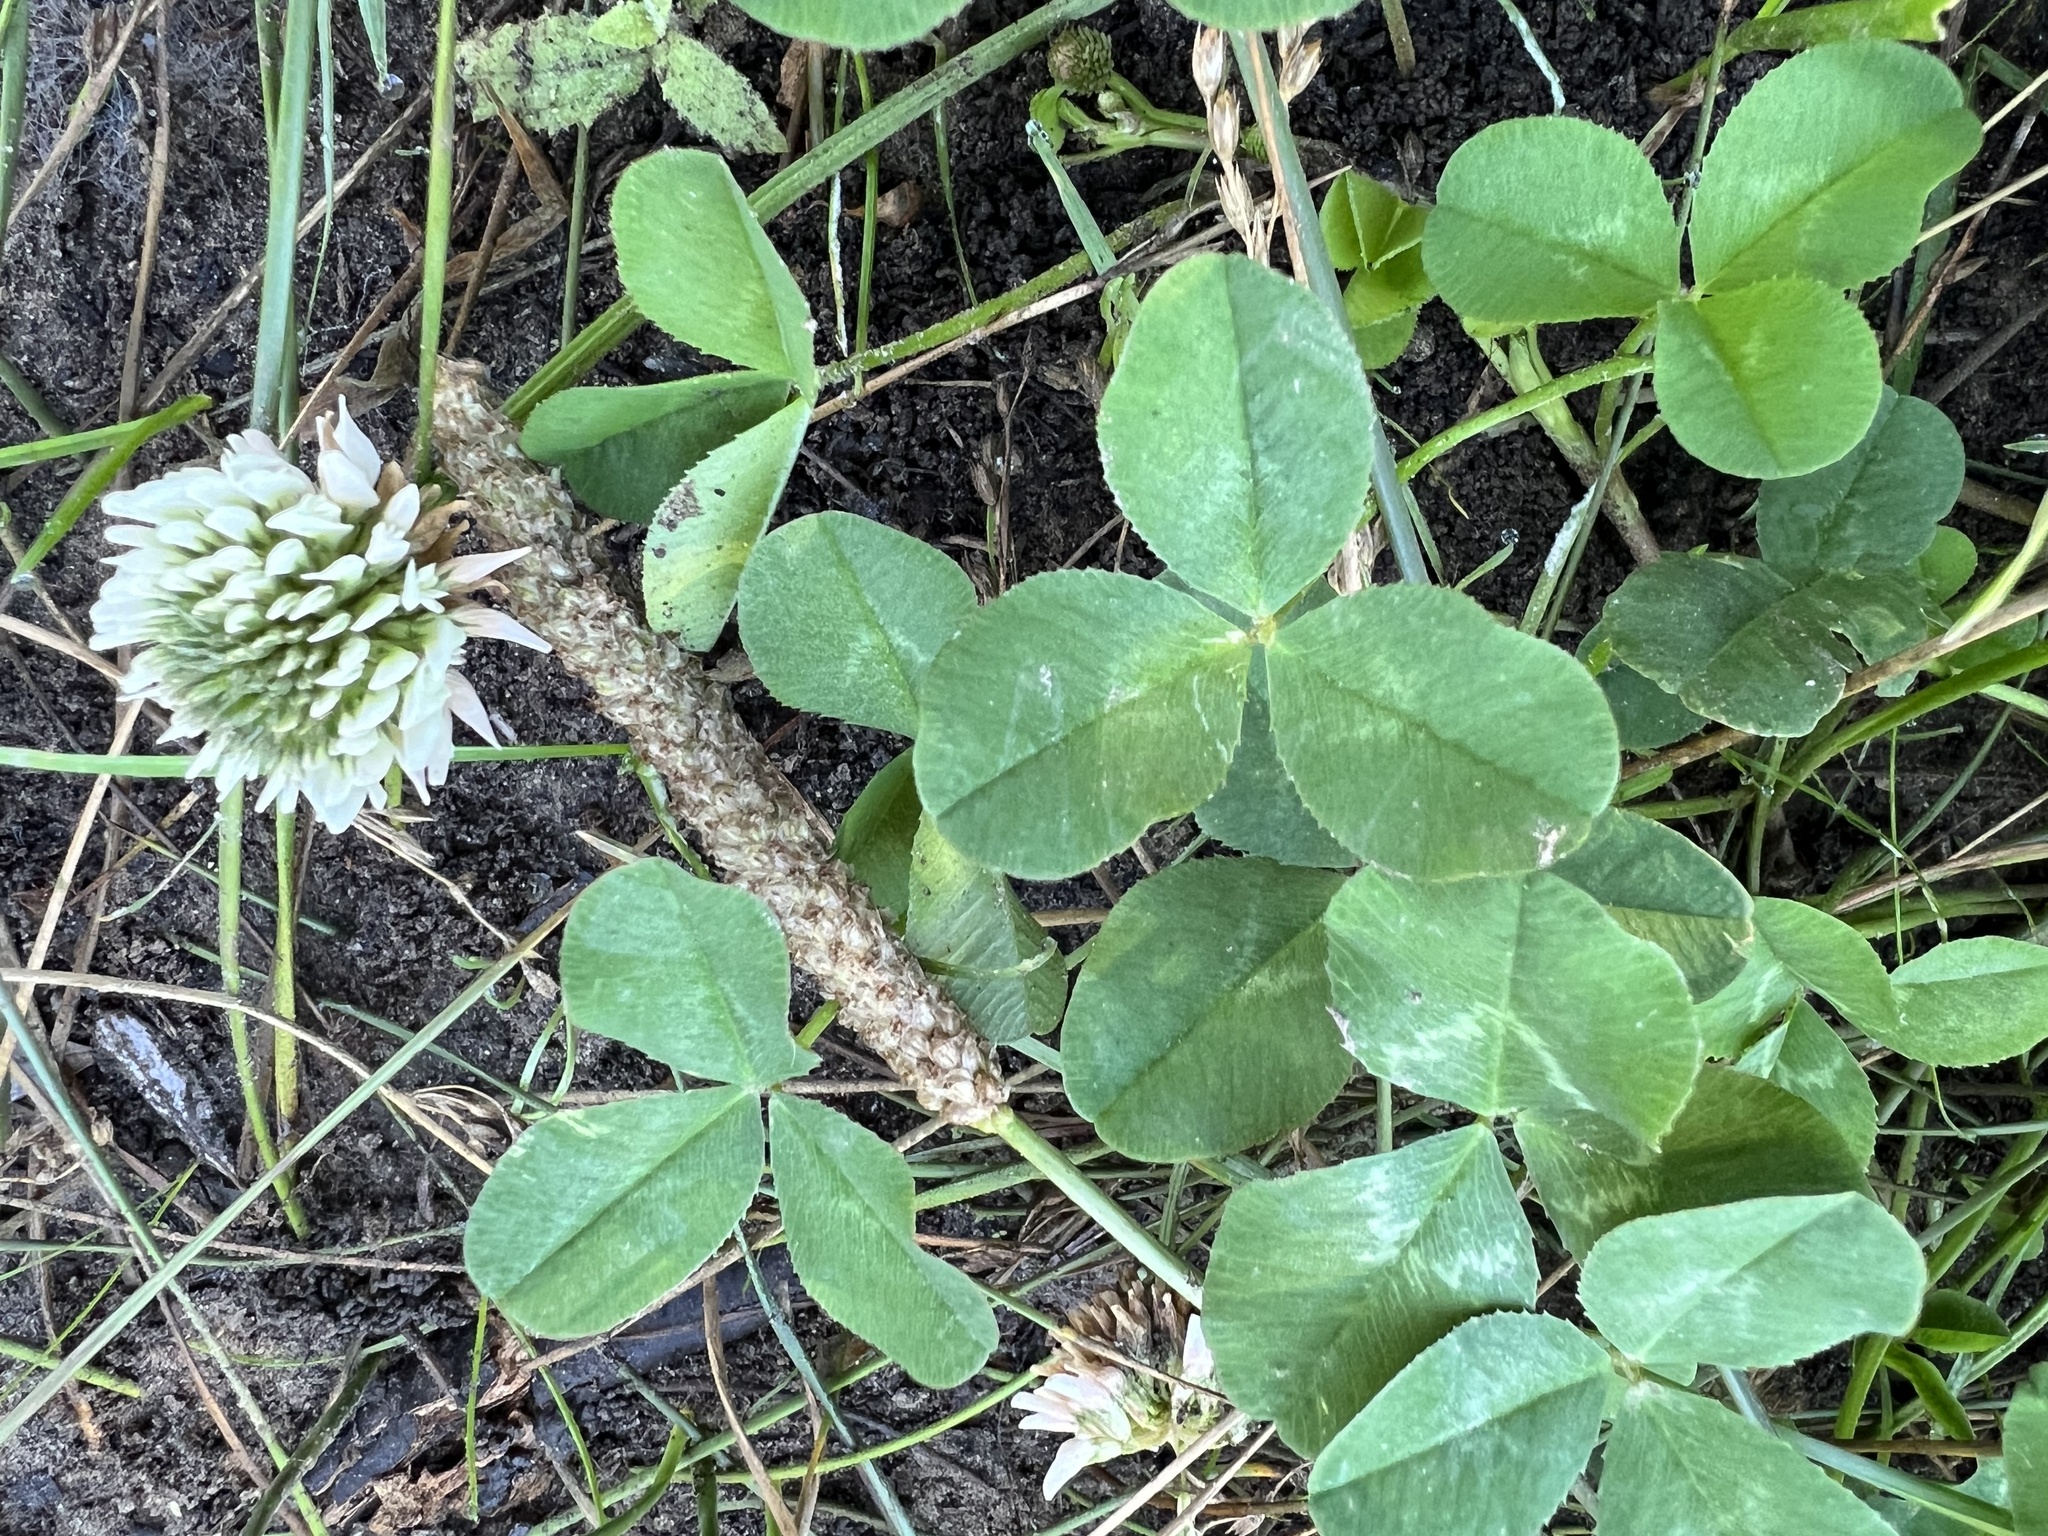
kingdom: Plantae
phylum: Tracheophyta
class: Magnoliopsida
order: Fabales
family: Fabaceae
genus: Trifolium
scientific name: Trifolium repens
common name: White clover
